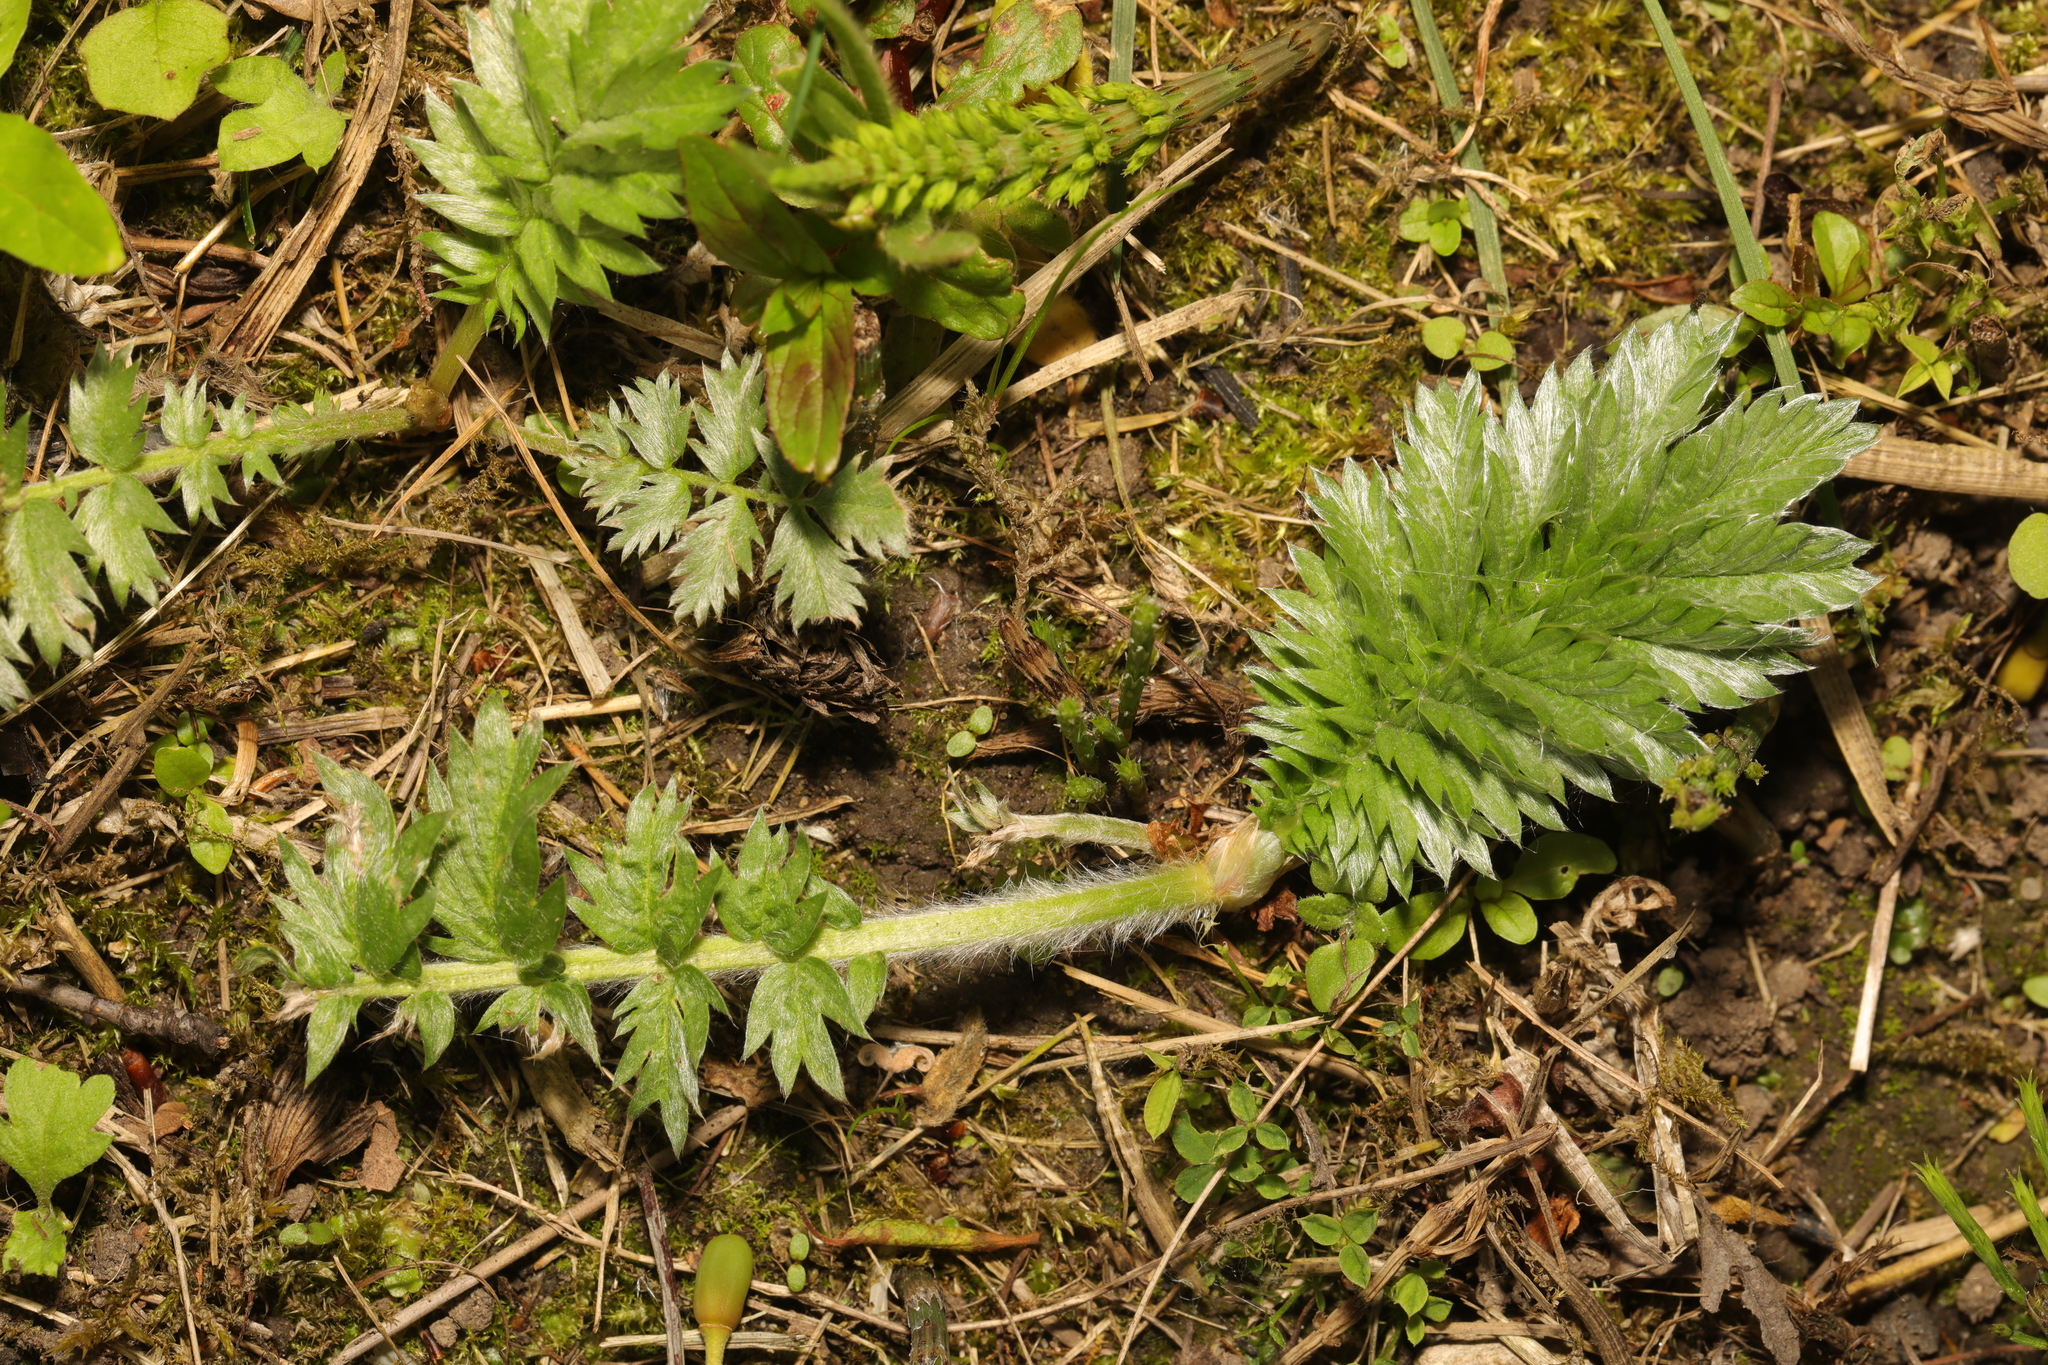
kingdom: Plantae
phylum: Tracheophyta
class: Magnoliopsida
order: Rosales
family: Rosaceae
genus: Argentina
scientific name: Argentina anserina
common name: Common silverweed
